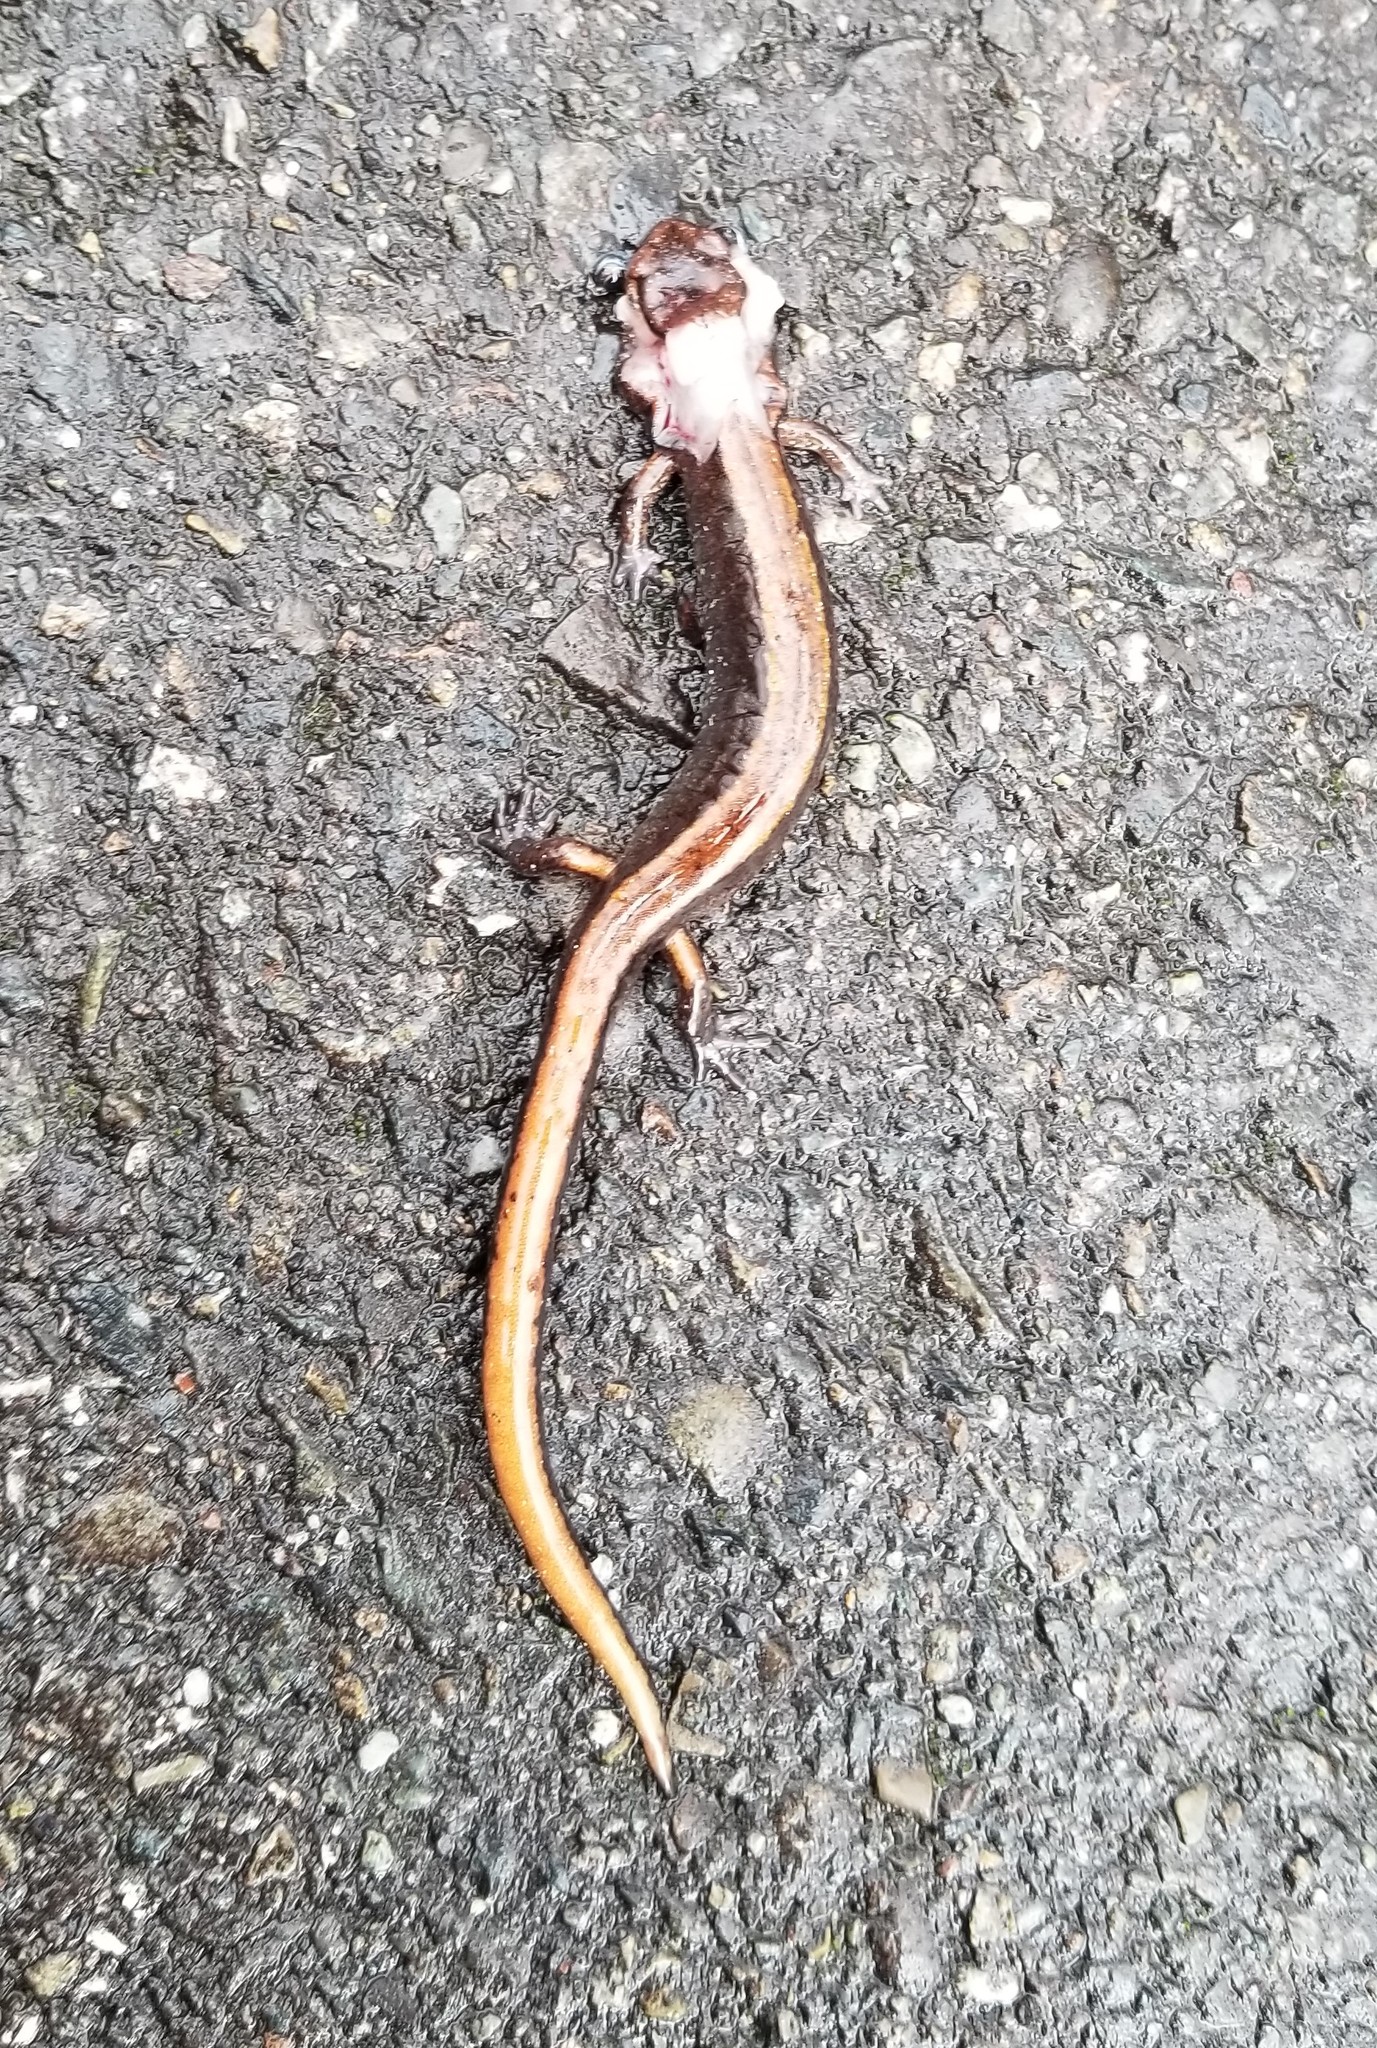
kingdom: Animalia
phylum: Chordata
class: Amphibia
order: Caudata
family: Plethodontidae
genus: Plethodon
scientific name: Plethodon vehiculum
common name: Western red-backed salamander
